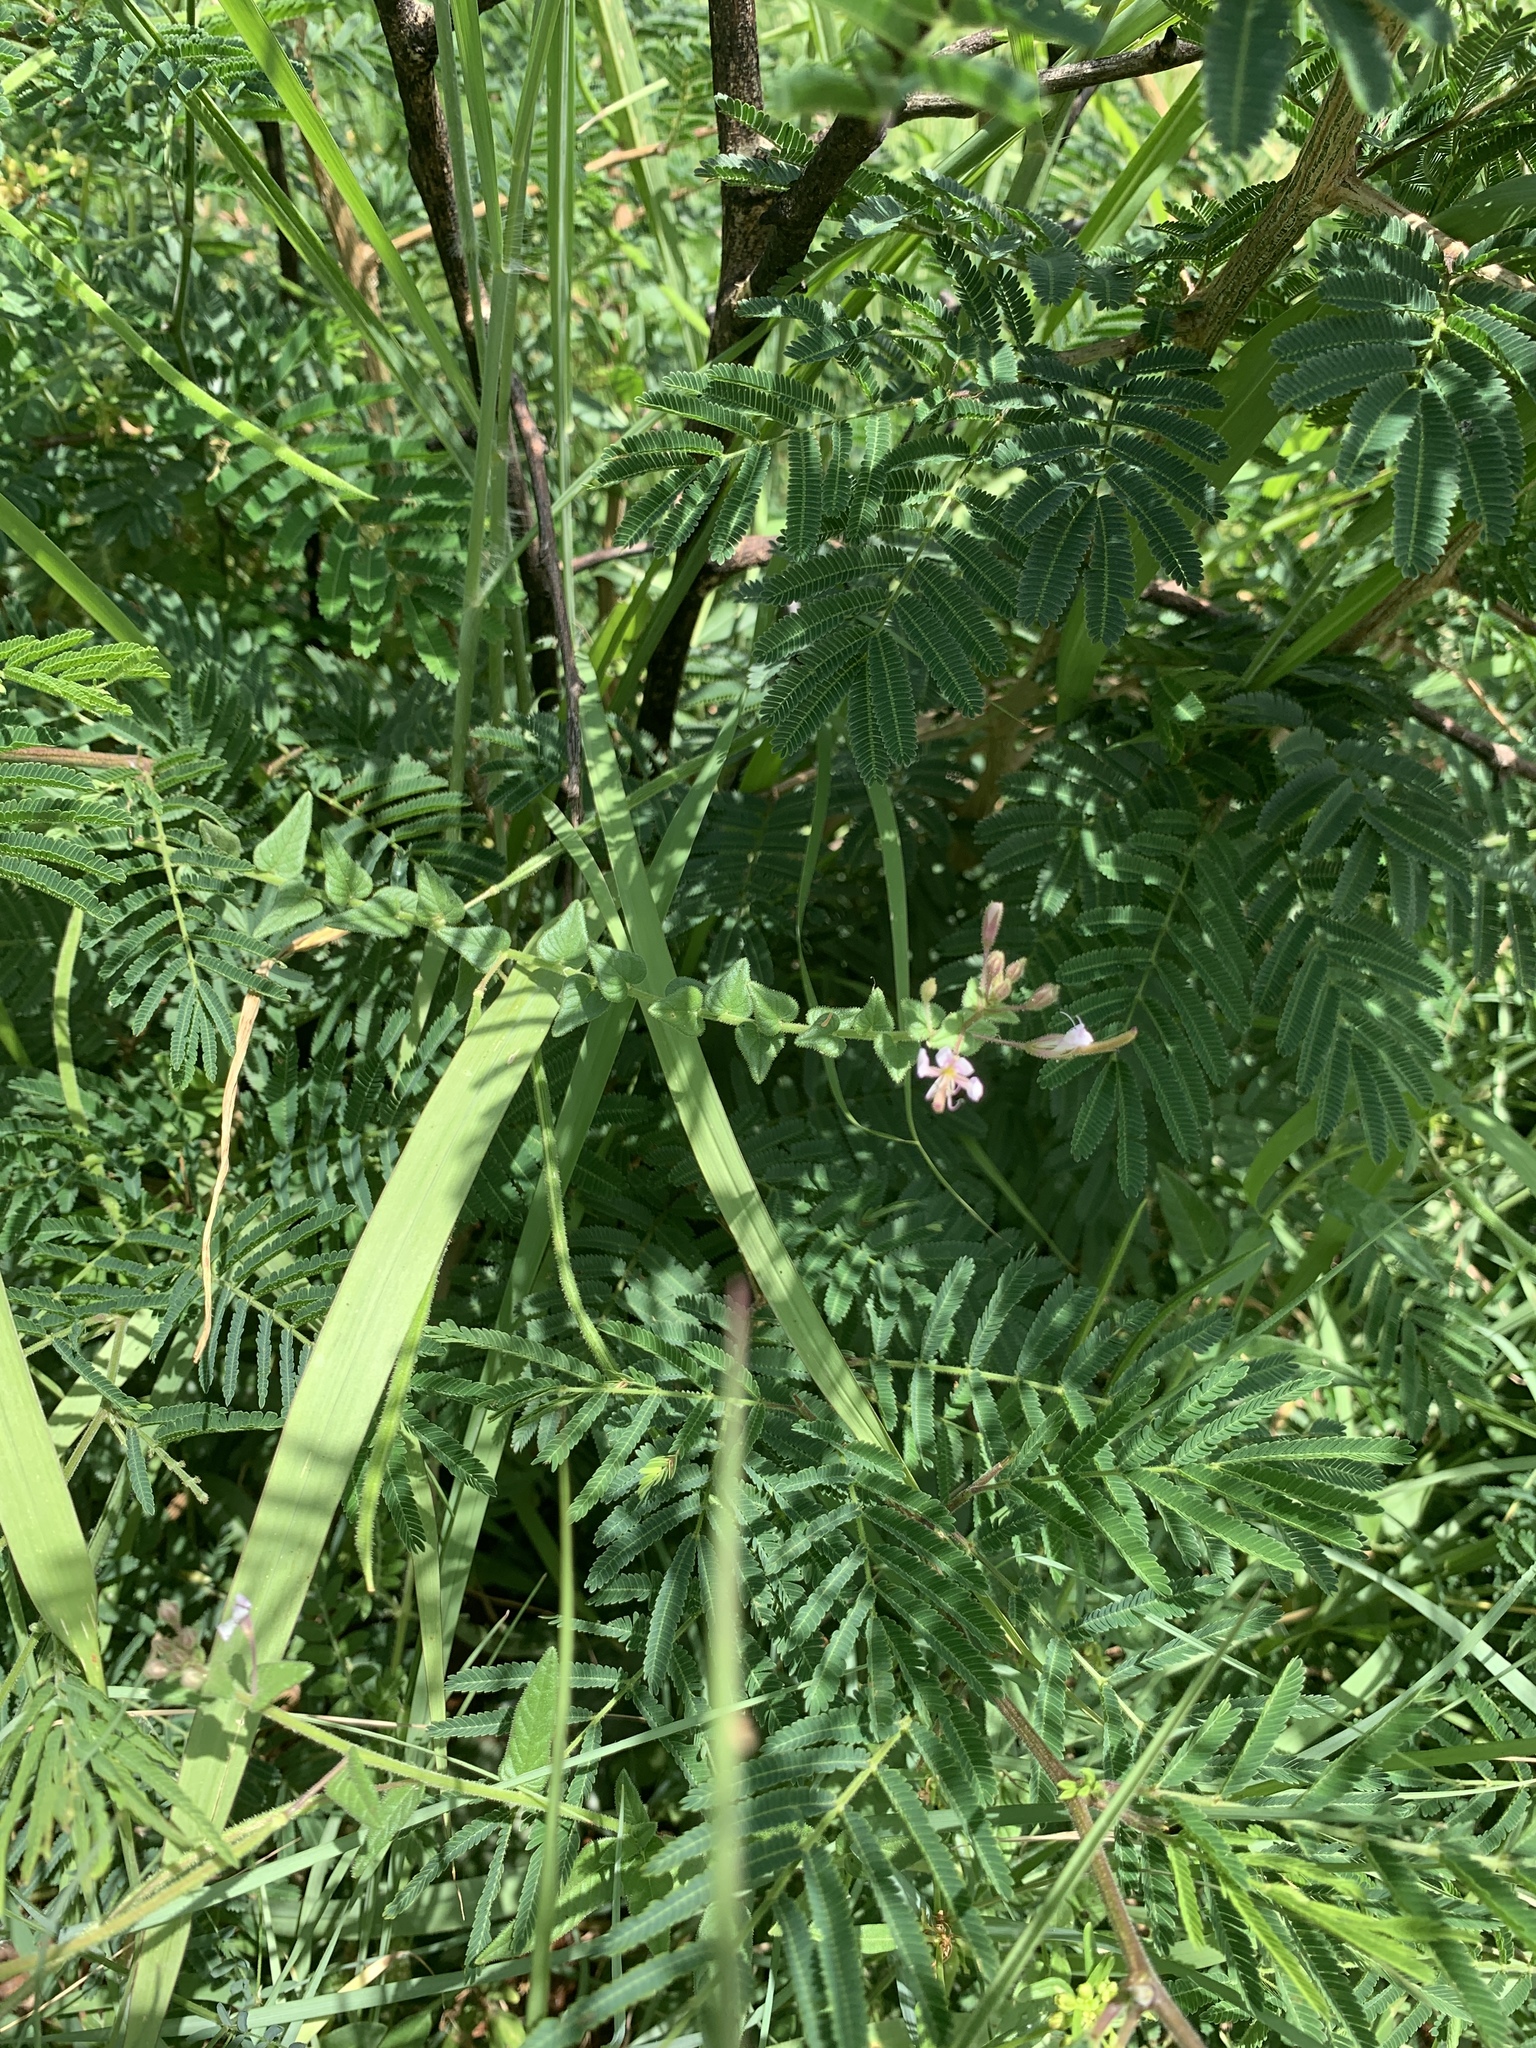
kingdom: Plantae
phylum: Tracheophyta
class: Magnoliopsida
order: Brassicales
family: Cleomaceae
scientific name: Cleomaceae
